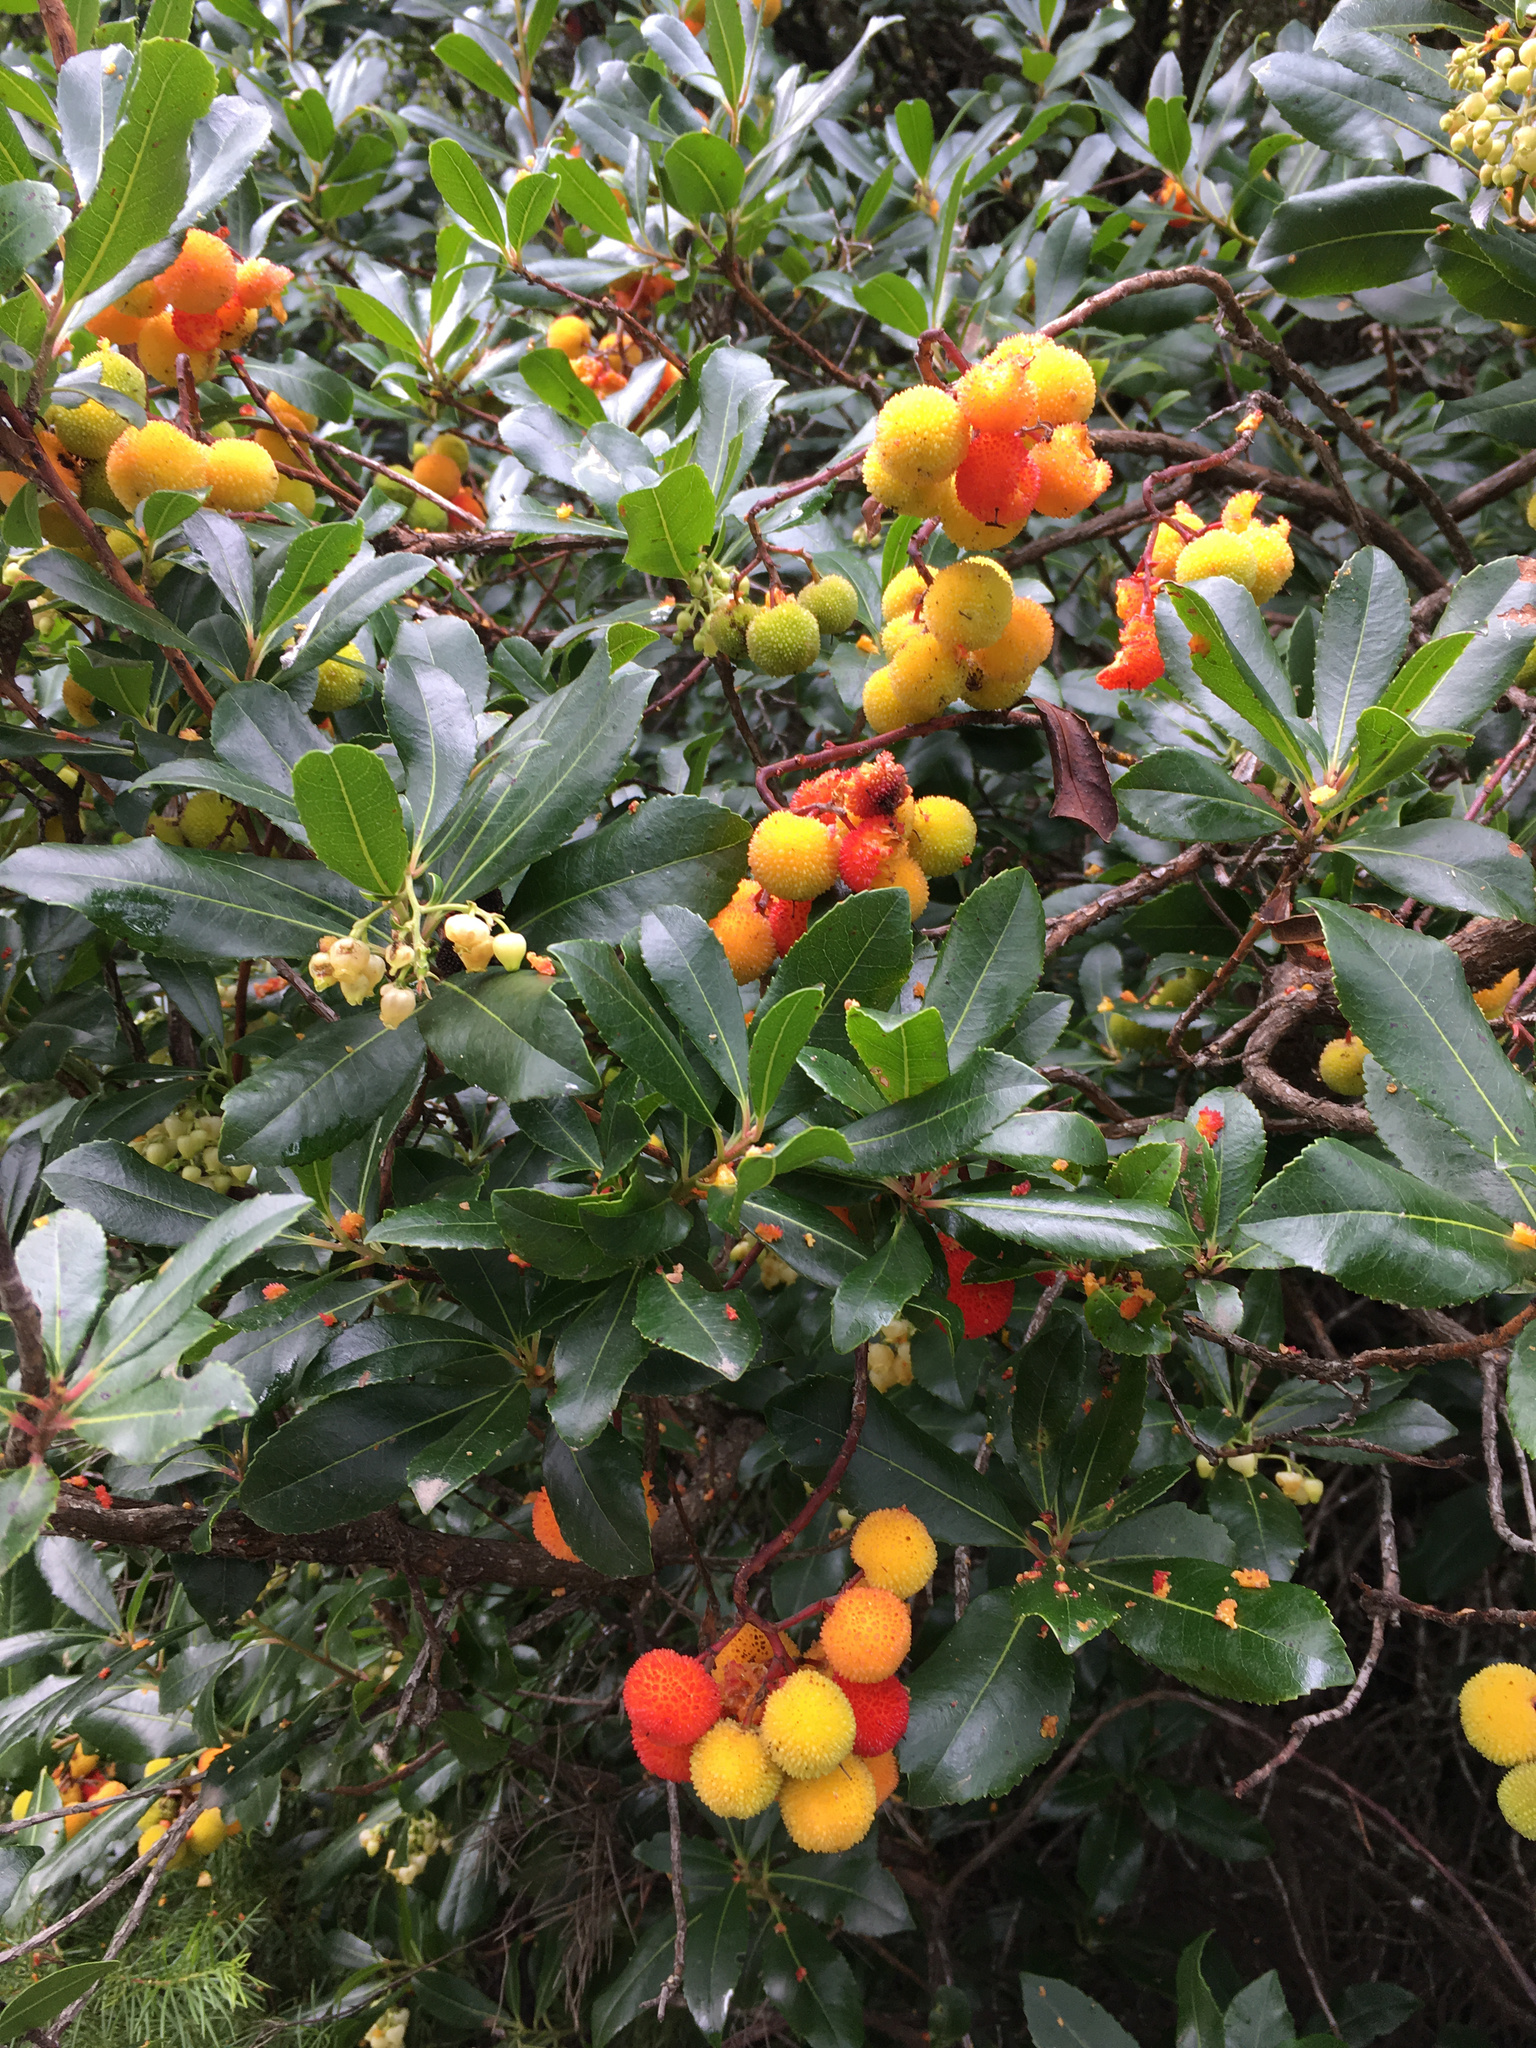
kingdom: Plantae
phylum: Tracheophyta
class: Magnoliopsida
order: Ericales
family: Ericaceae
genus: Arbutus
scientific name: Arbutus unedo
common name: Strawberry-tree
